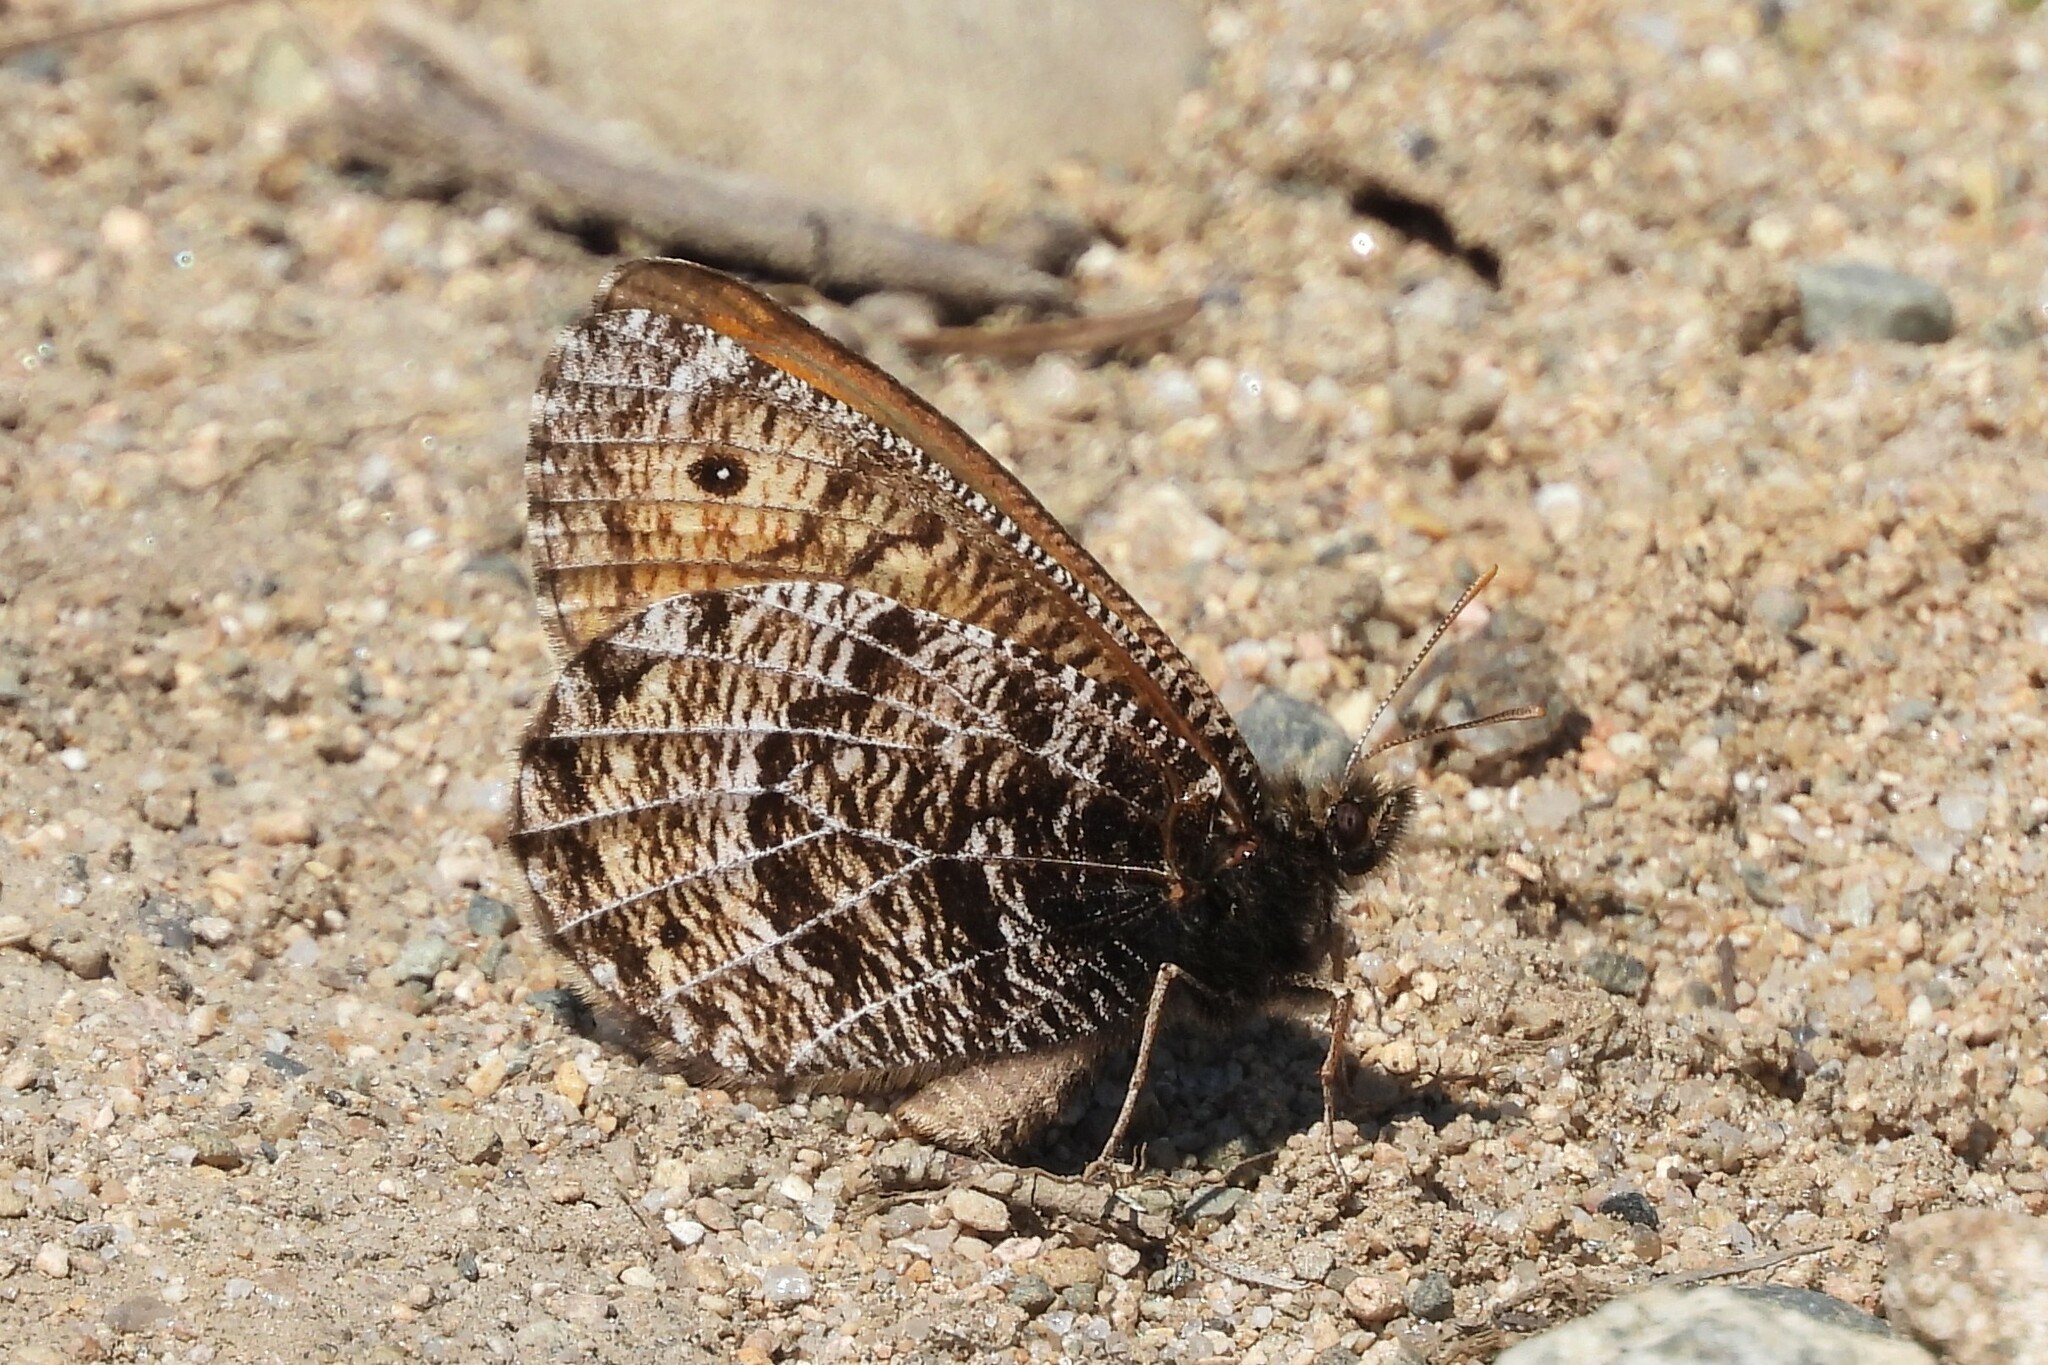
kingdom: Animalia
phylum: Arthropoda
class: Insecta
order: Lepidoptera
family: Nymphalidae
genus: Oeneis
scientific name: Oeneis chryxus
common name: Chryxus arctic
